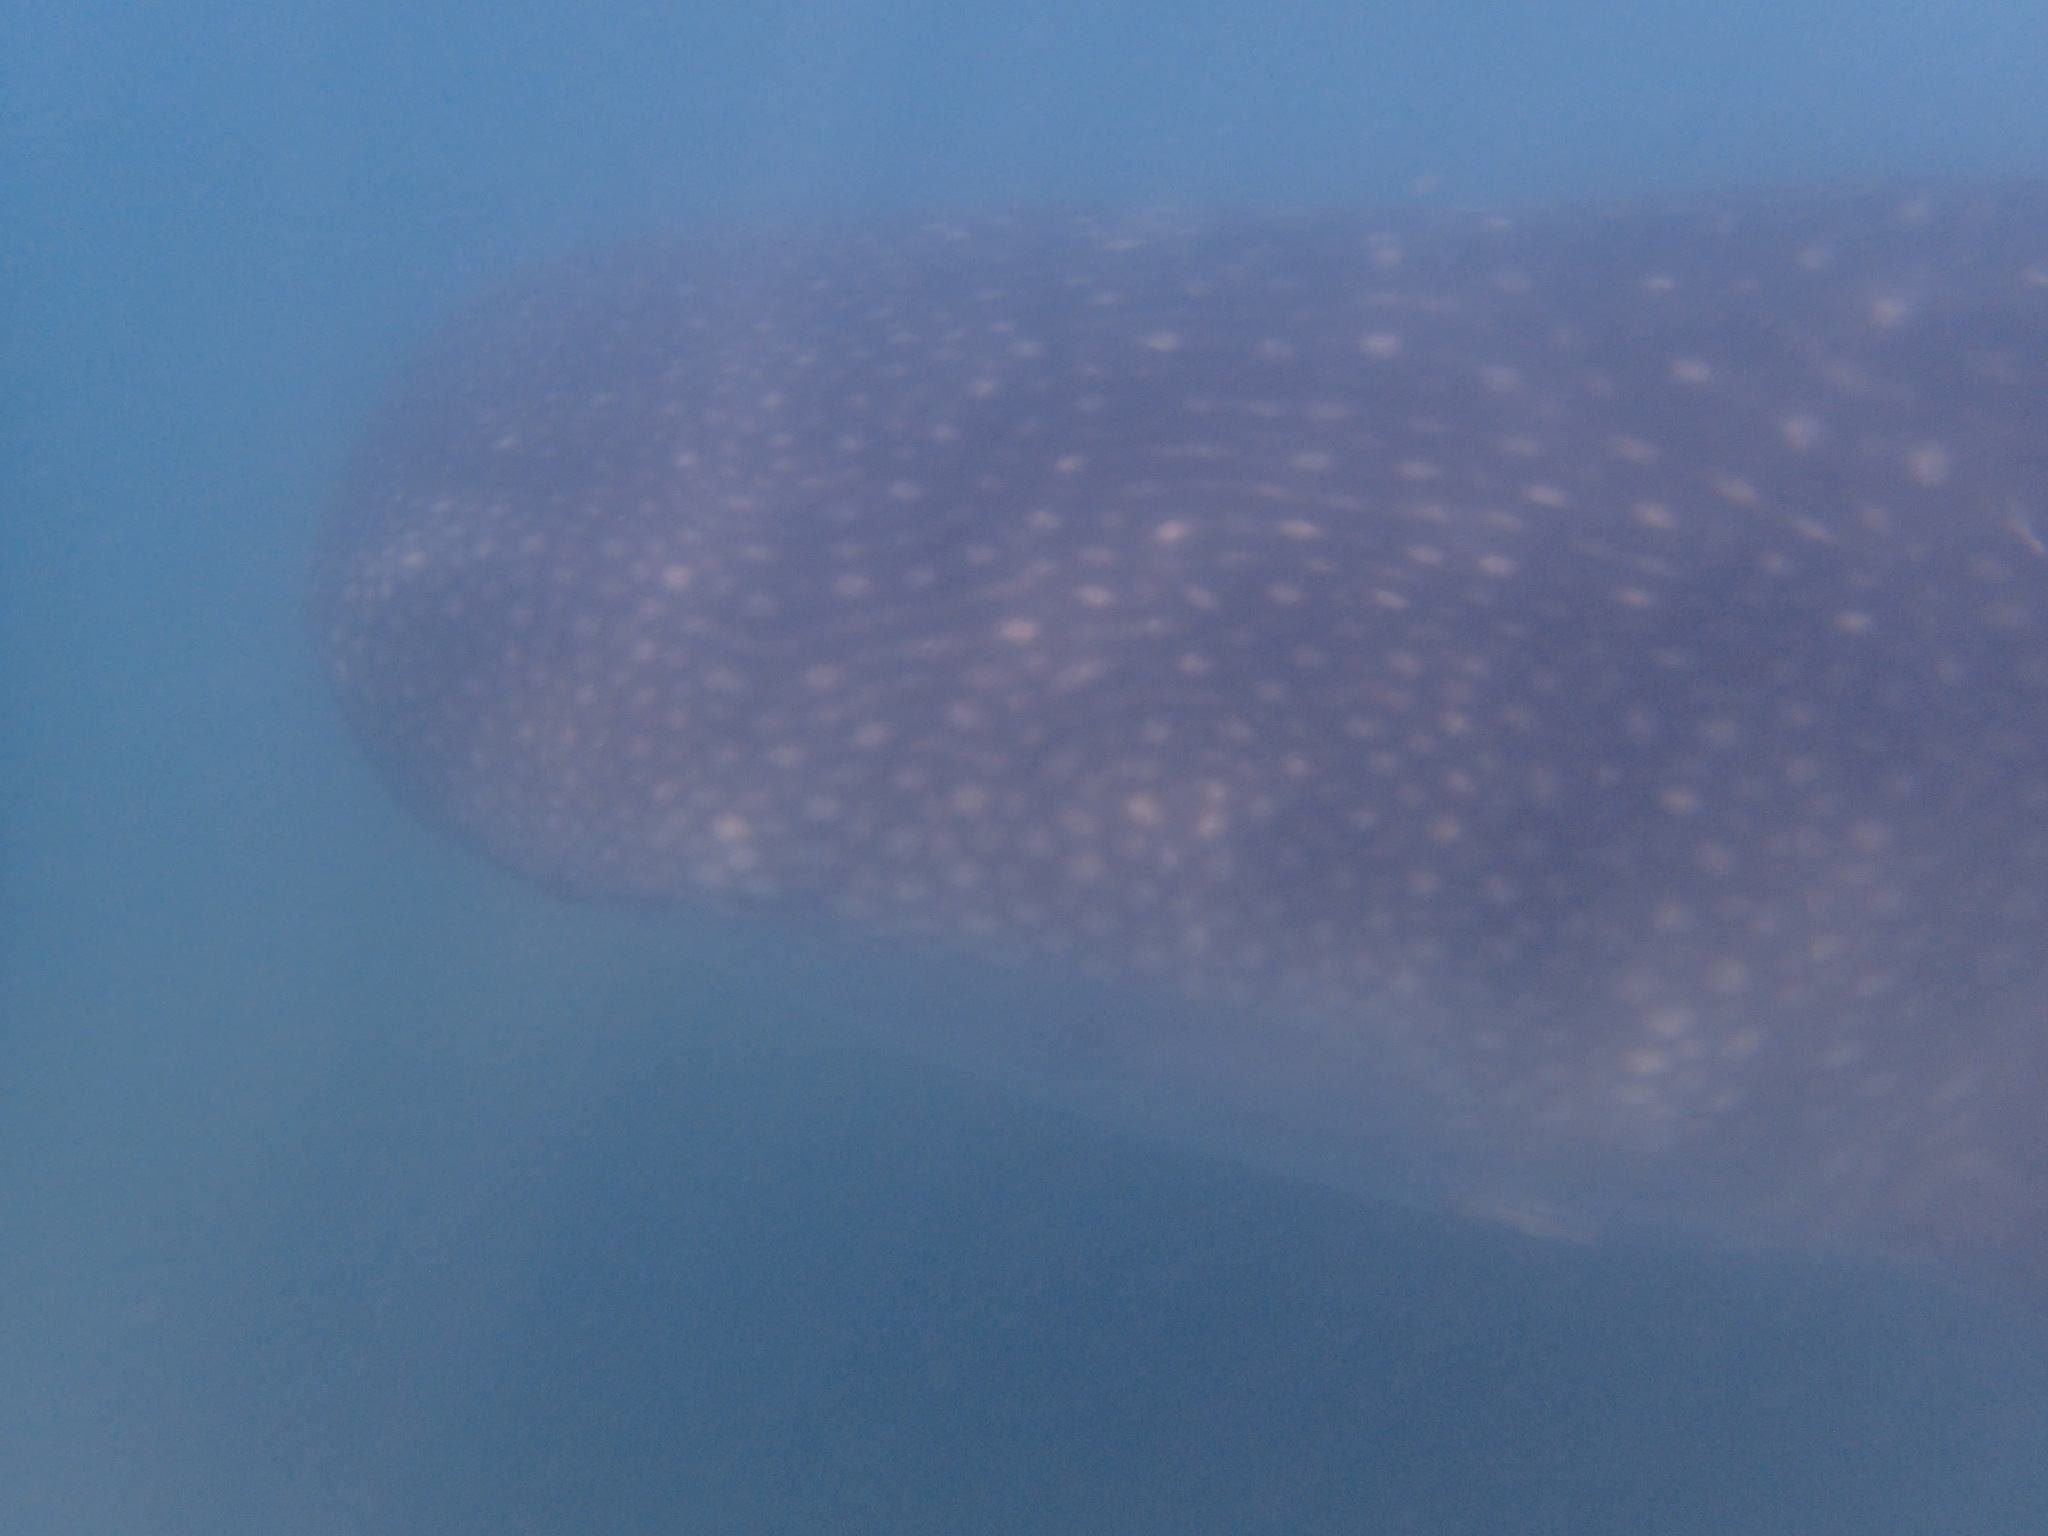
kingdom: Animalia
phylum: Chordata
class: Elasmobranchii
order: Orectolobiformes
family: Rhincodontidae
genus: Rhincodon
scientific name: Rhincodon typus
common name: Whale shark
